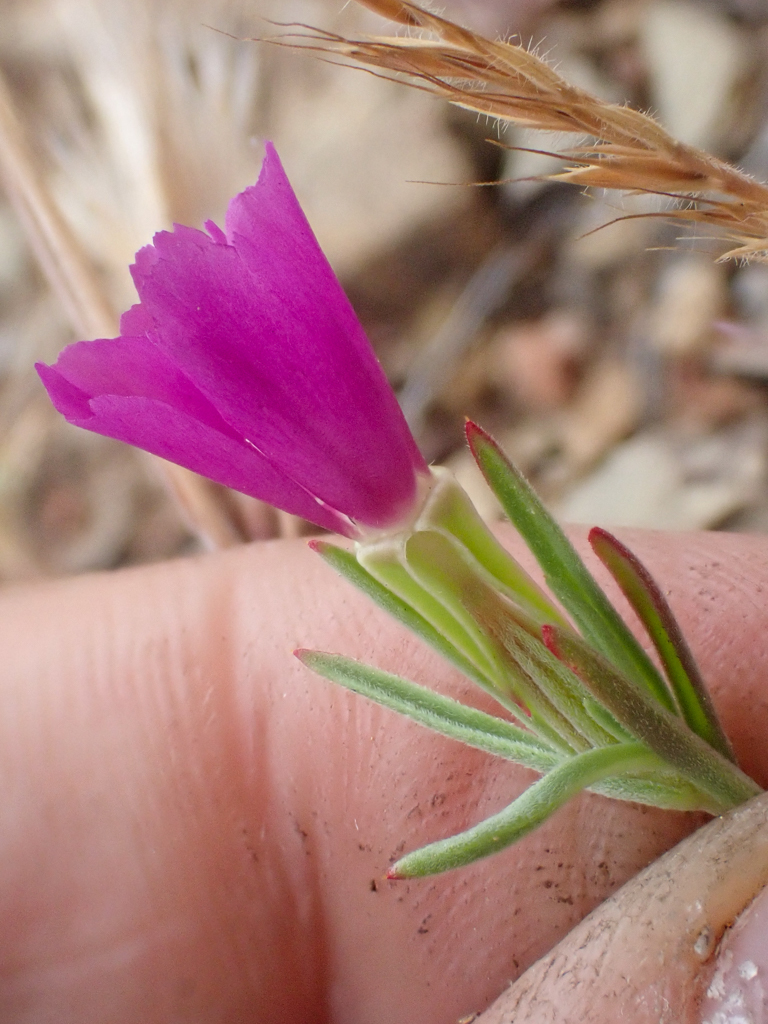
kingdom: Plantae
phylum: Tracheophyta
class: Magnoliopsida
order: Myrtales
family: Onagraceae
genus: Clarkia
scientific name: Clarkia purpurea
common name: Purple clarkia
